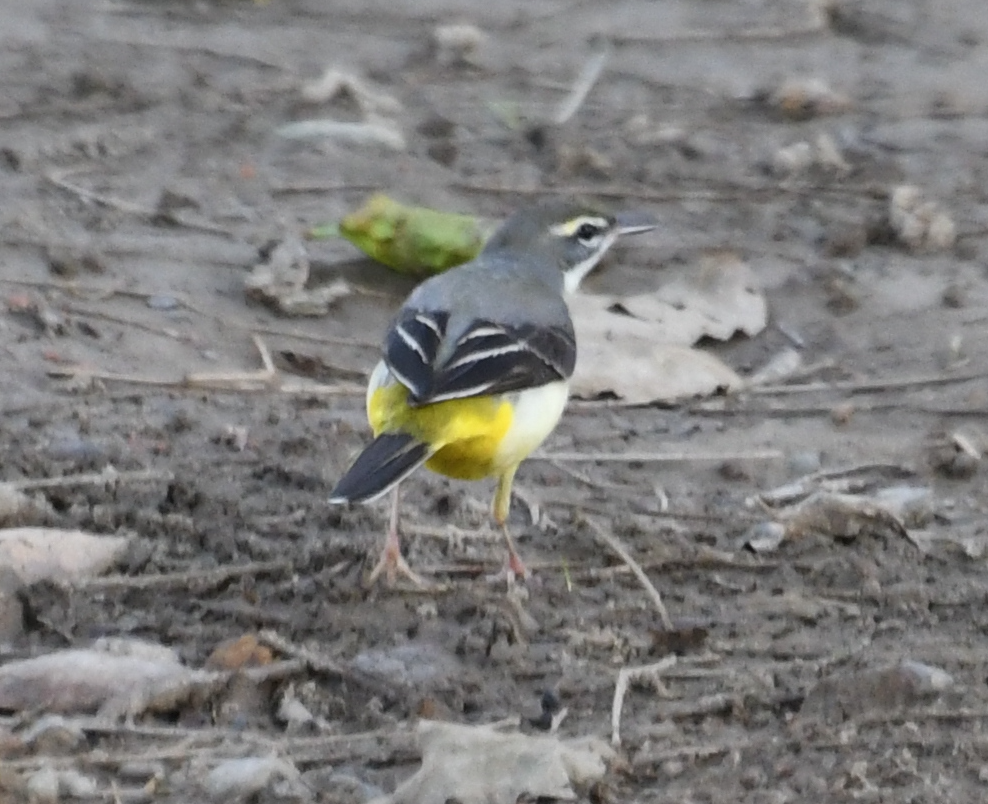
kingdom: Animalia
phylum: Chordata
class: Aves
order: Passeriformes
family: Motacillidae
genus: Motacilla
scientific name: Motacilla cinerea
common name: Grey wagtail
